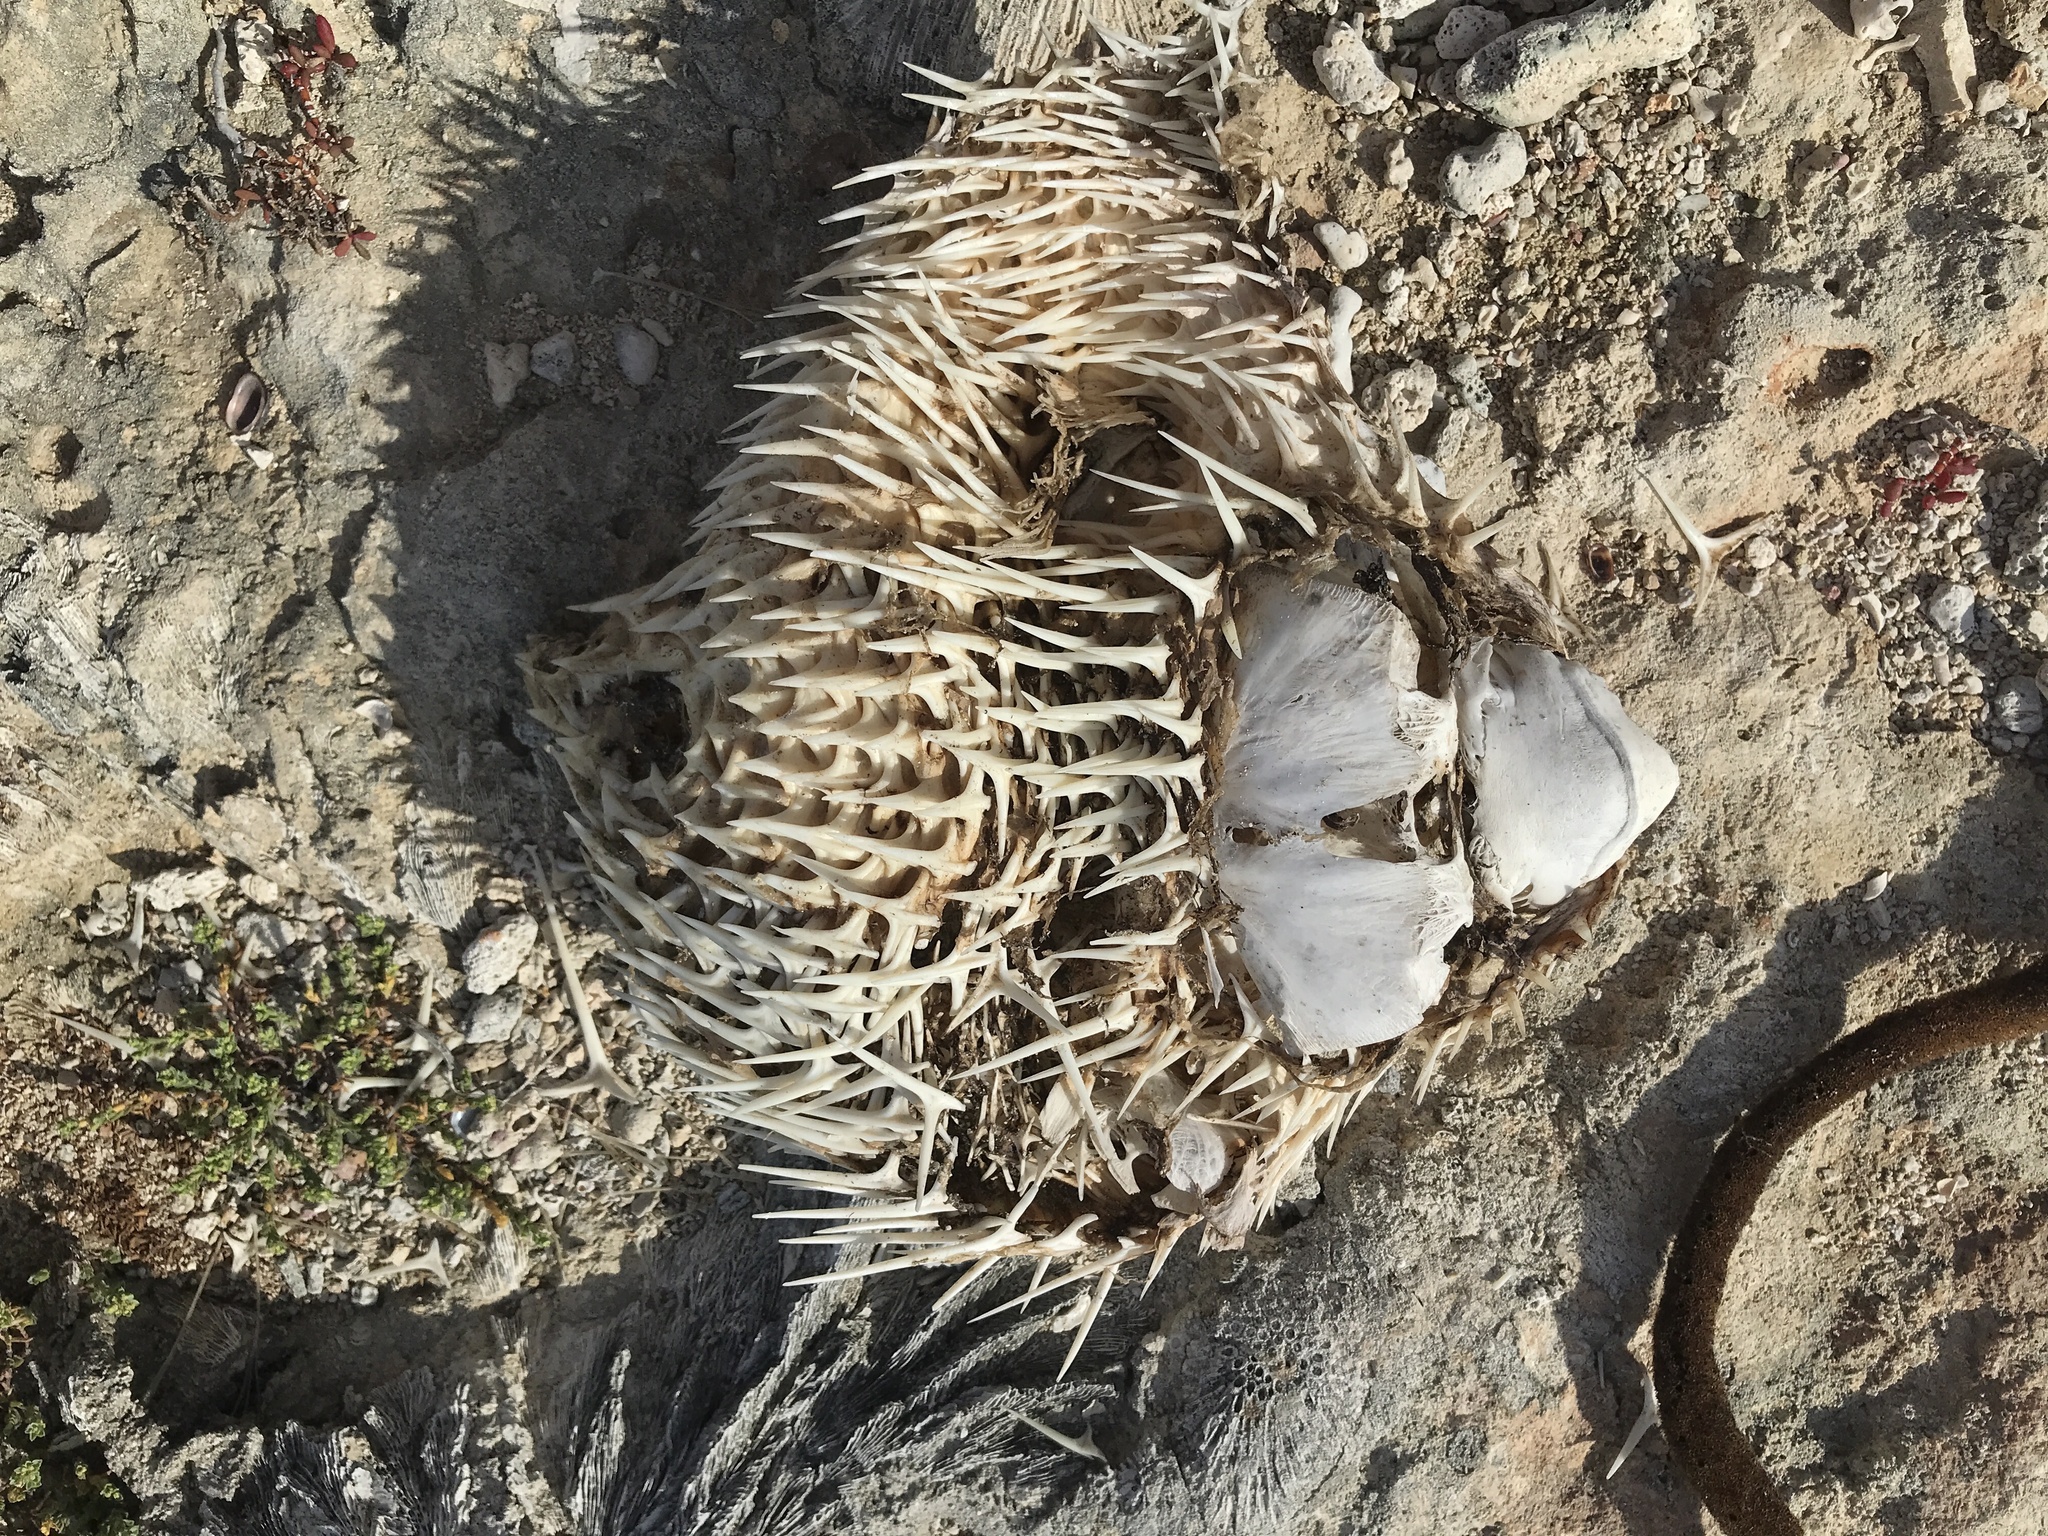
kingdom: Animalia
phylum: Chordata
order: Tetraodontiformes
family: Diodontidae
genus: Diodon
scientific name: Diodon
